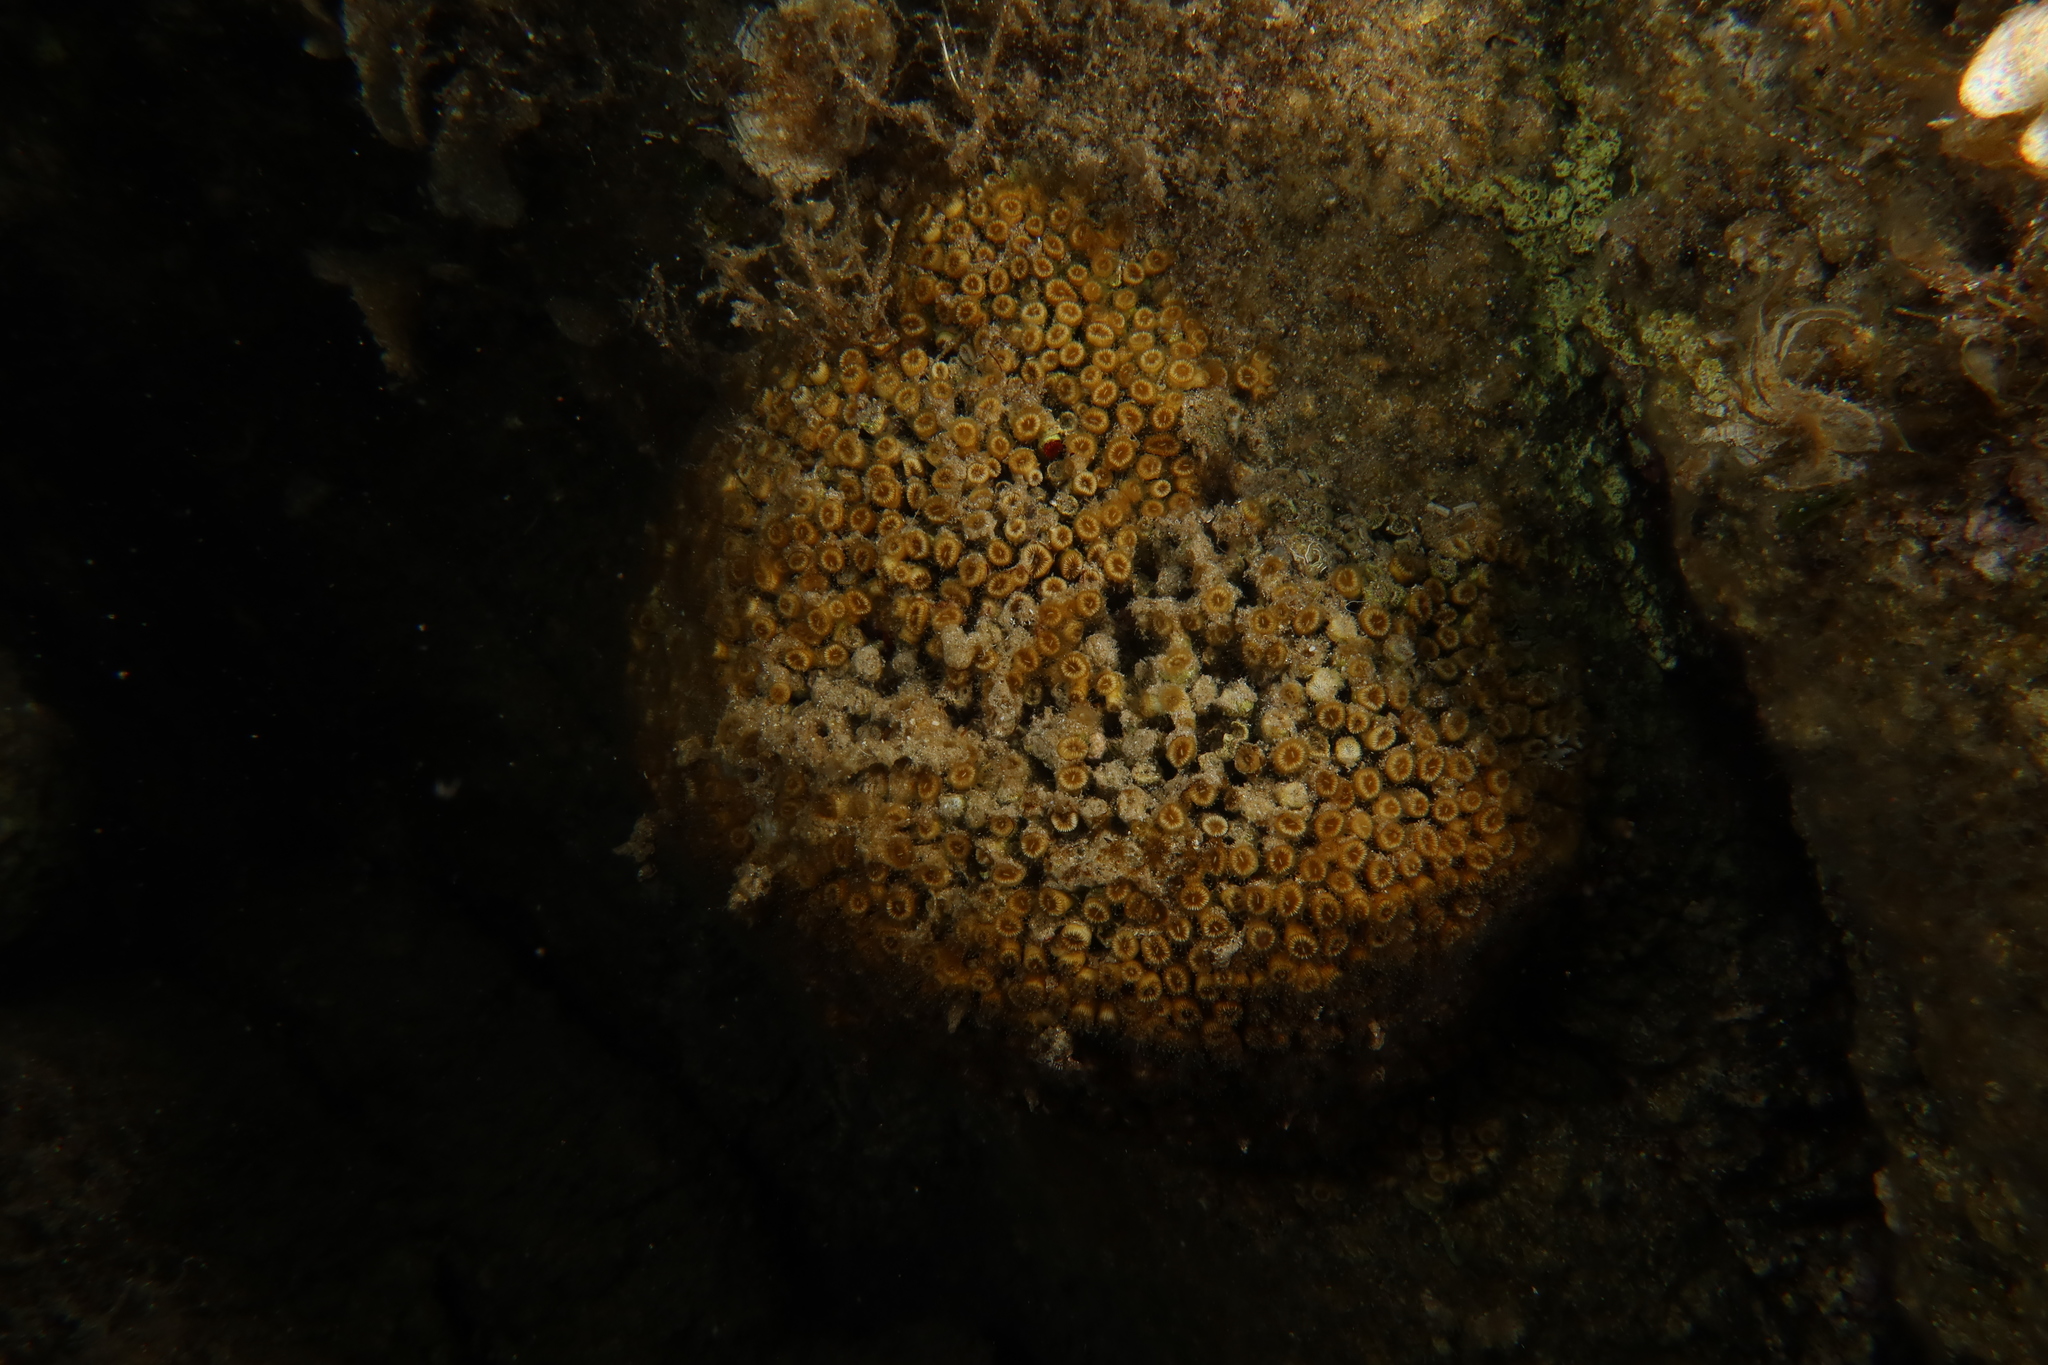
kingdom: Animalia
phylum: Cnidaria
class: Anthozoa
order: Scleractinia
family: Cladocoridae
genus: Cladocora
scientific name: Cladocora caespitosa
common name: Cladocora
